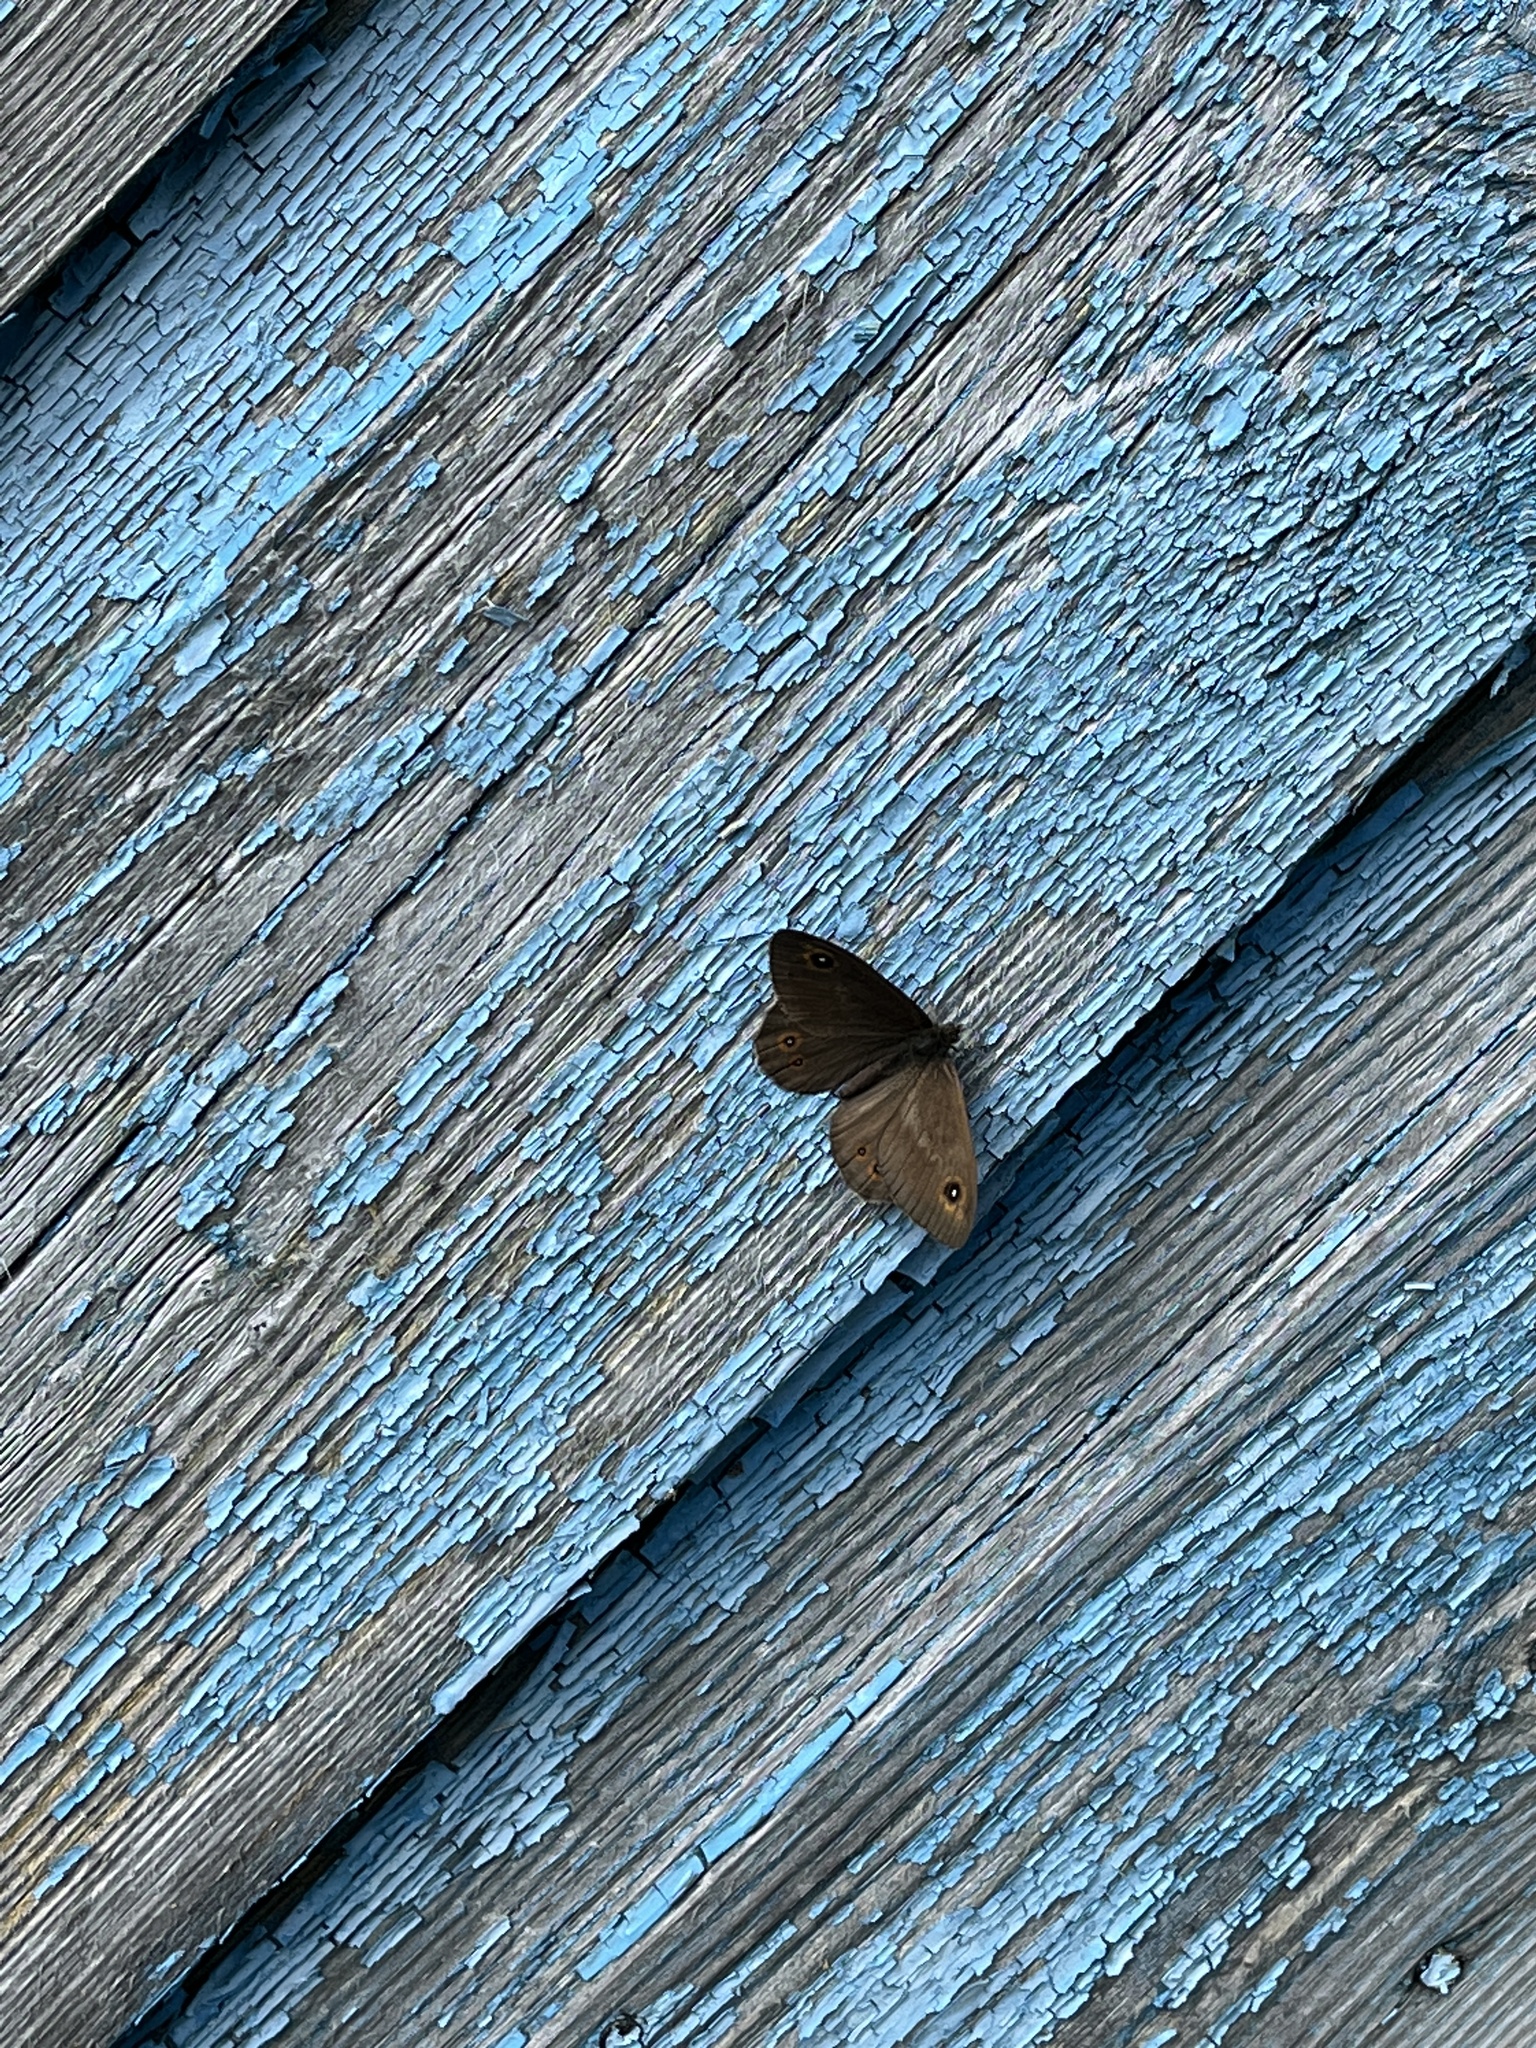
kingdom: Animalia
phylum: Arthropoda
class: Insecta
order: Lepidoptera
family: Nymphalidae
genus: Pararge
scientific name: Pararge petropolitana
